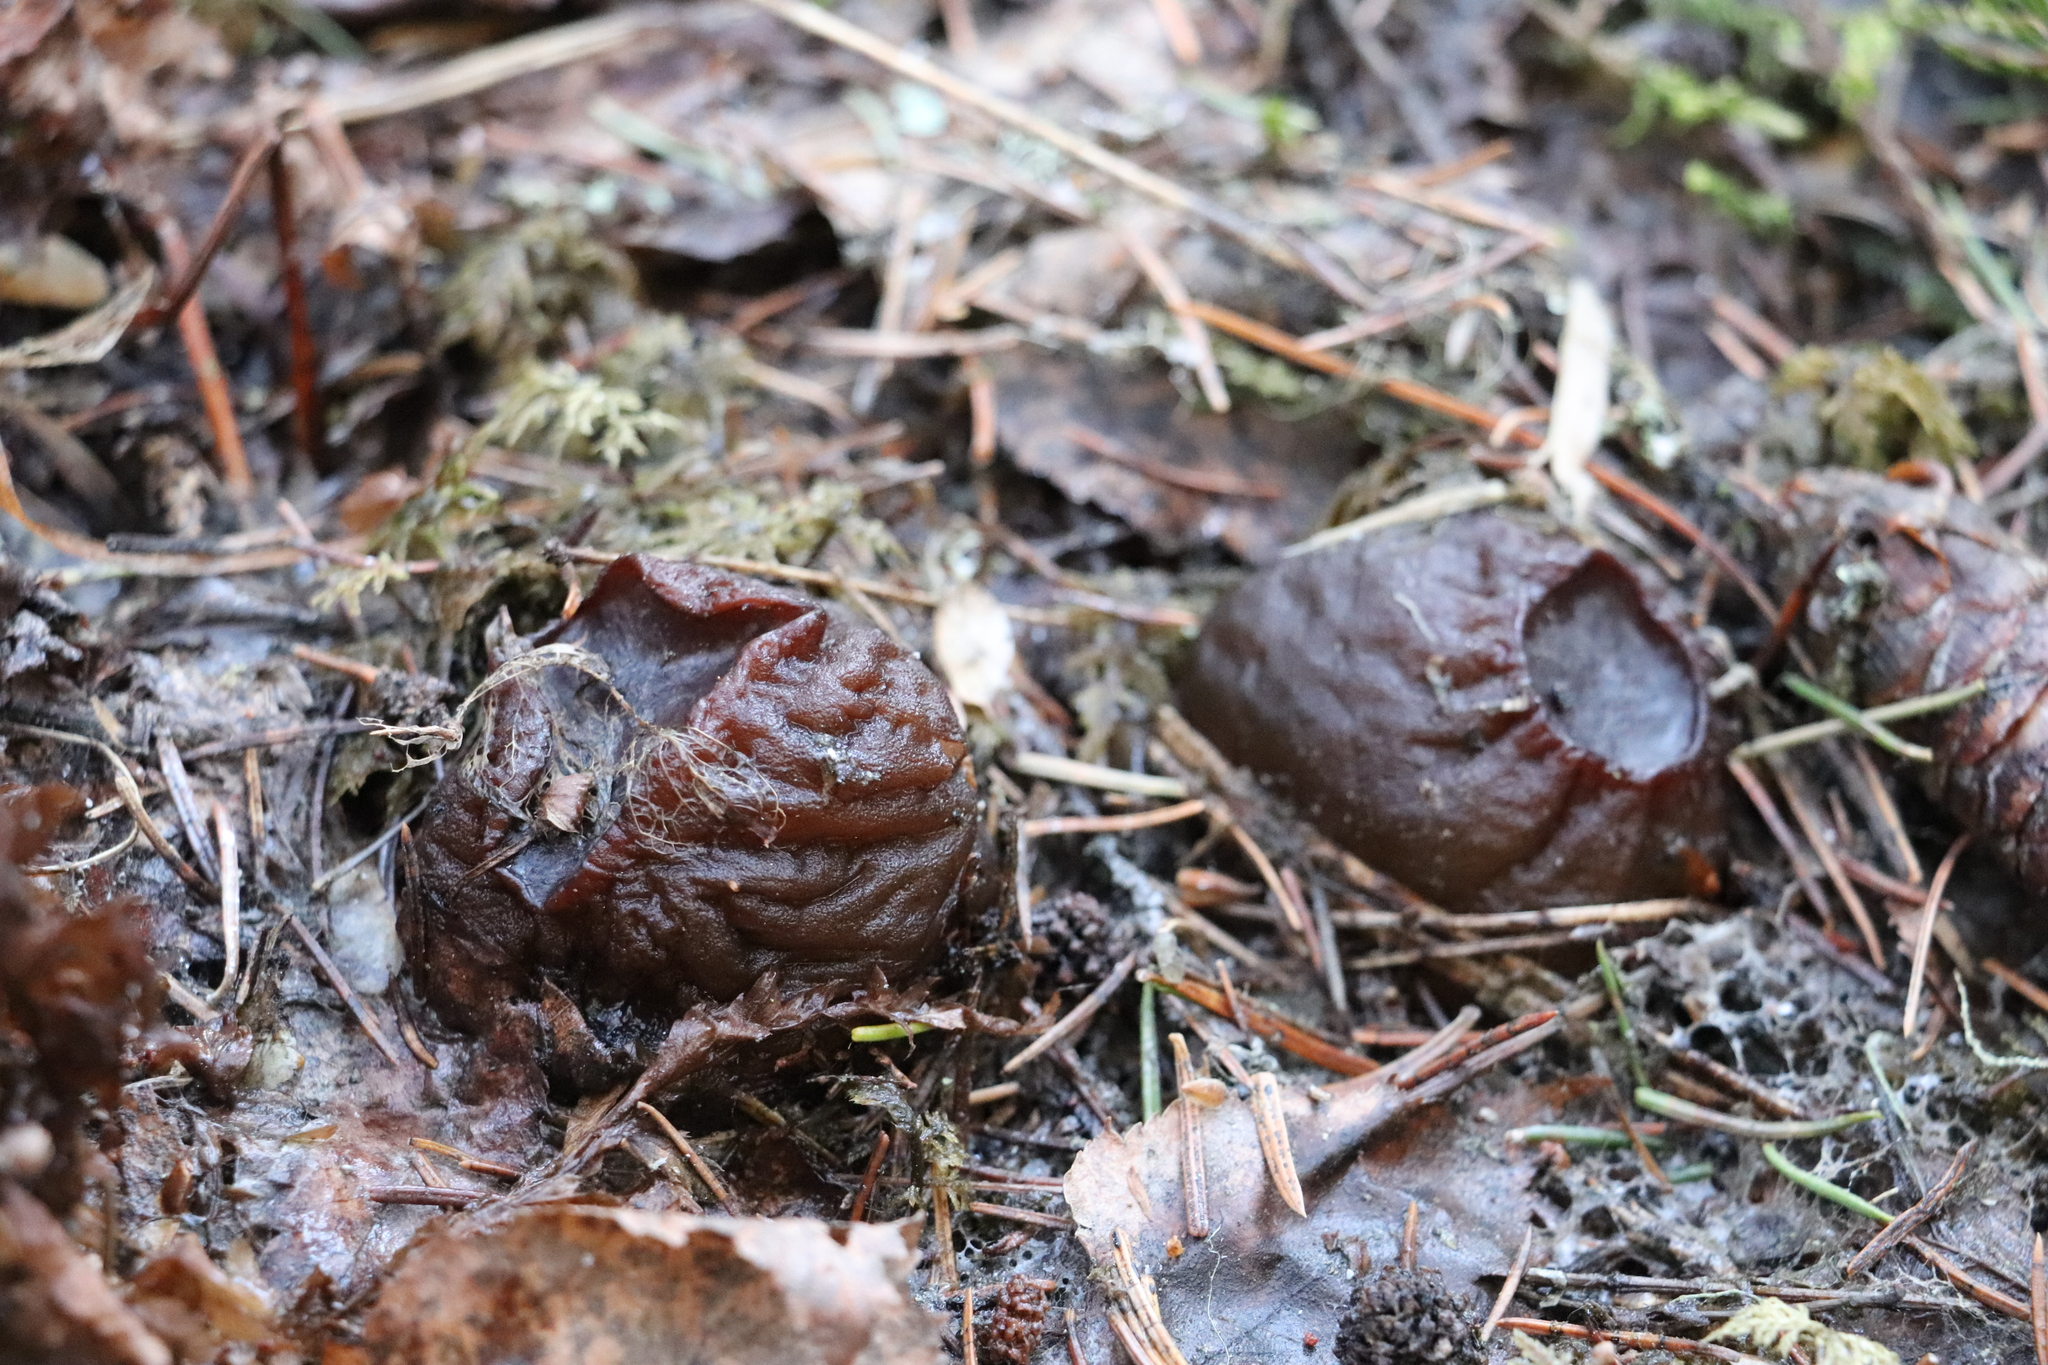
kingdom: Fungi
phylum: Ascomycota
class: Pezizomycetes
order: Pezizales
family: Sarcosomataceae
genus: Sarcosoma
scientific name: Sarcosoma globosum
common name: Charred-pancake cup
